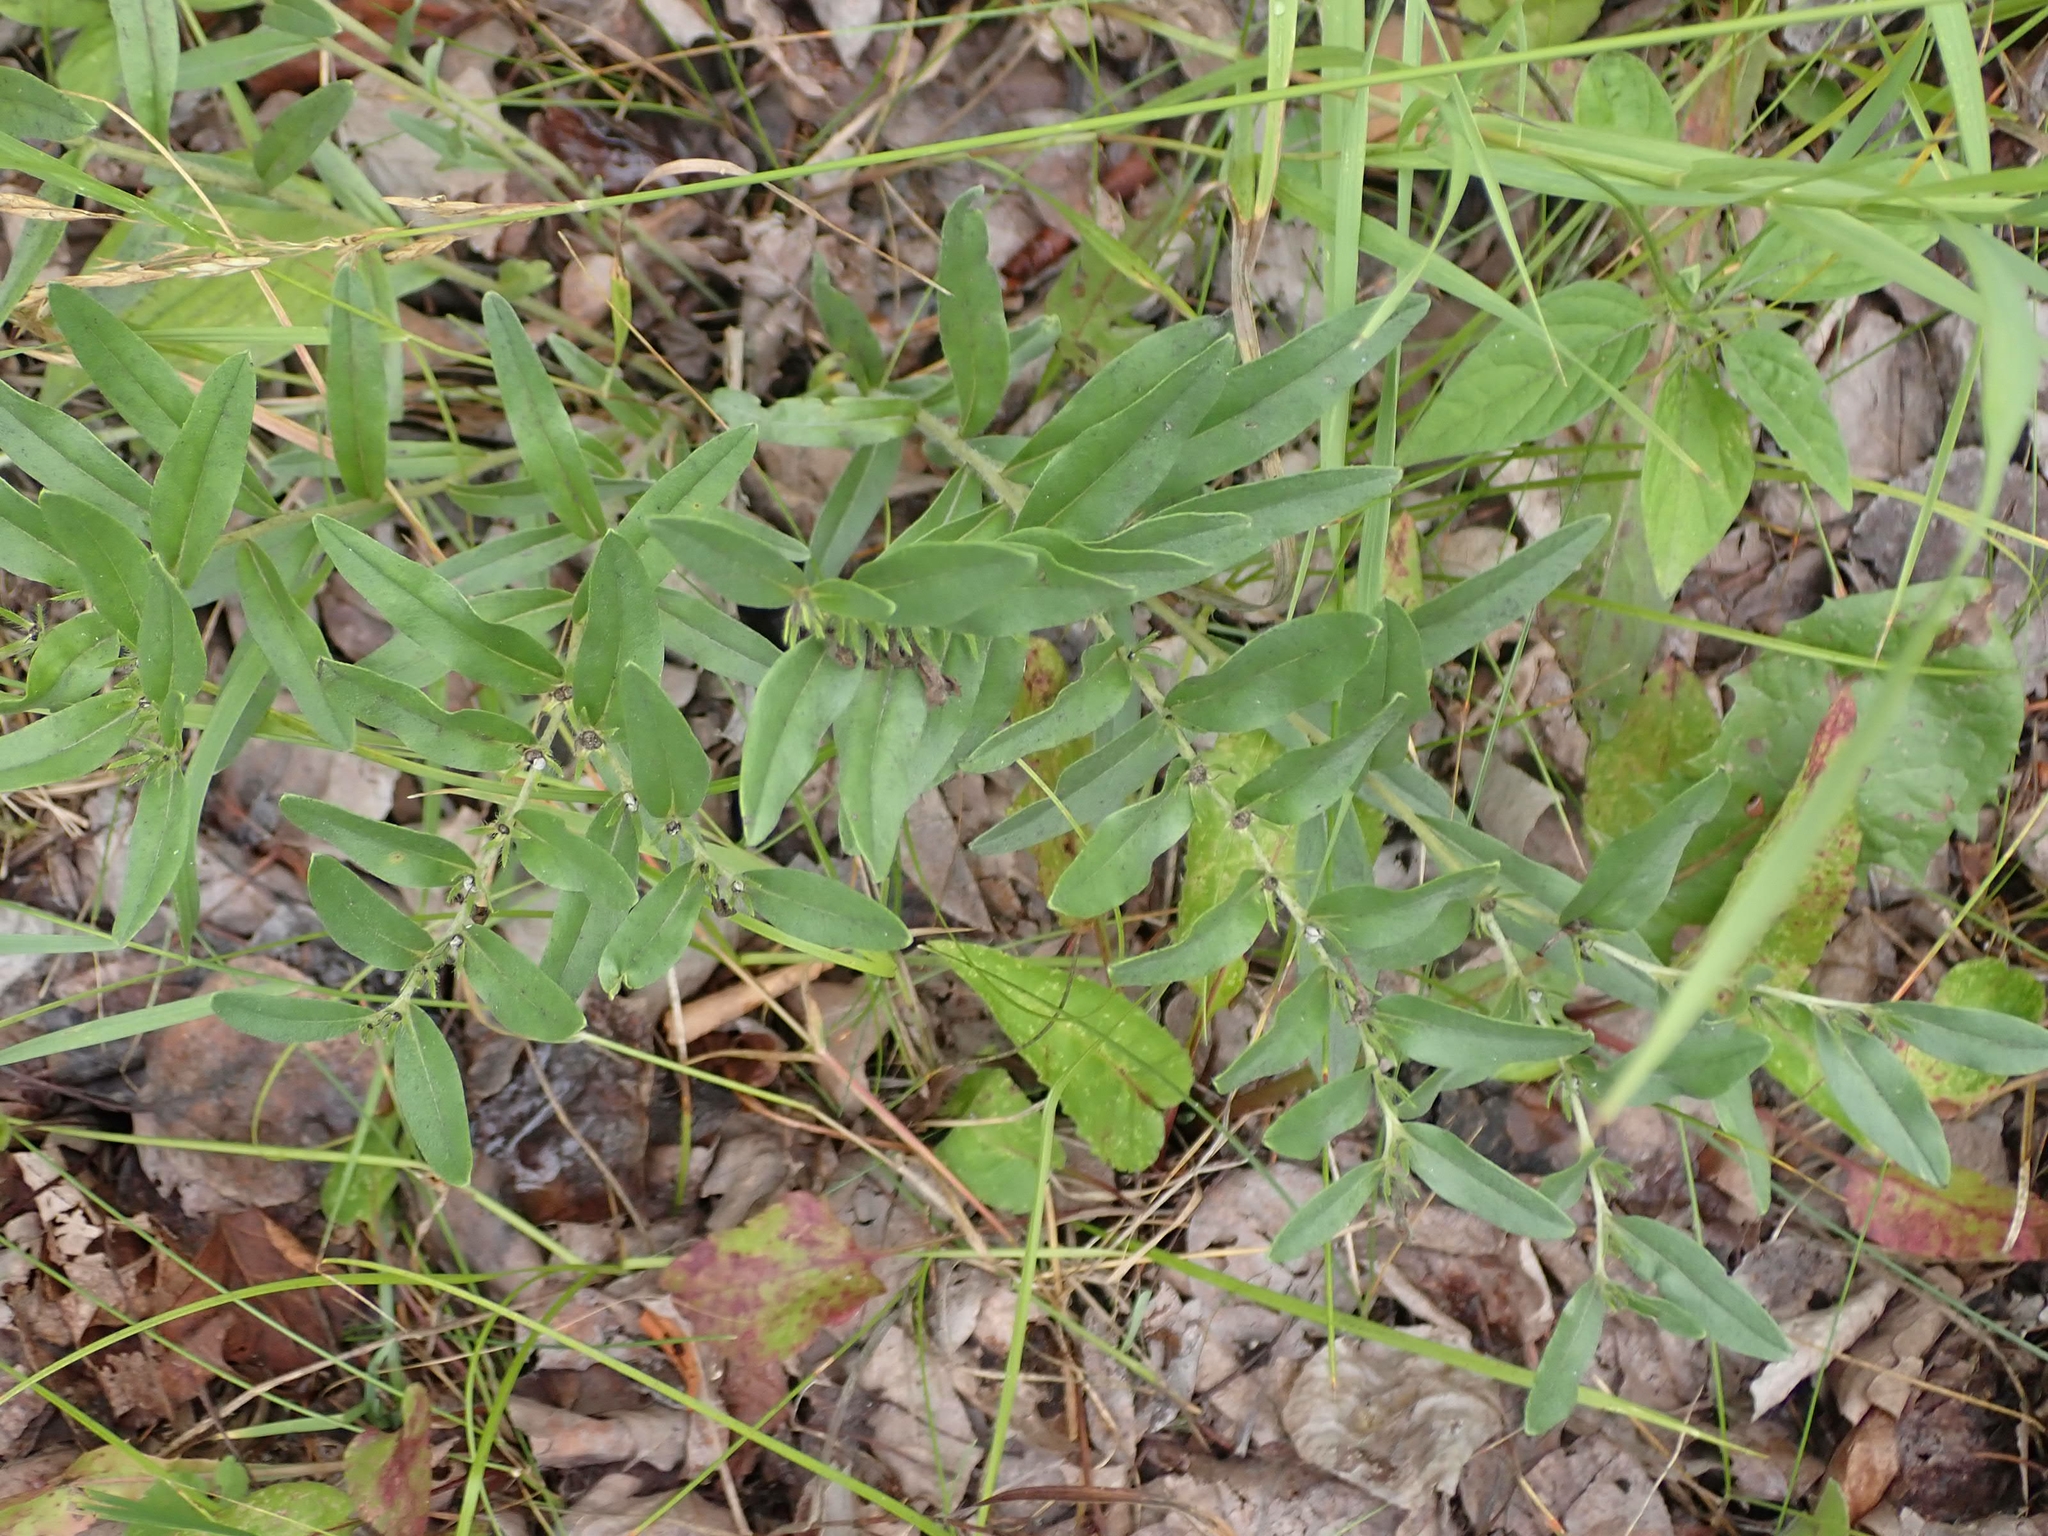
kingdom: Plantae
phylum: Tracheophyta
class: Magnoliopsida
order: Boraginales
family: Boraginaceae
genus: Lithospermum
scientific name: Lithospermum canescens
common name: Hoary puccoon
